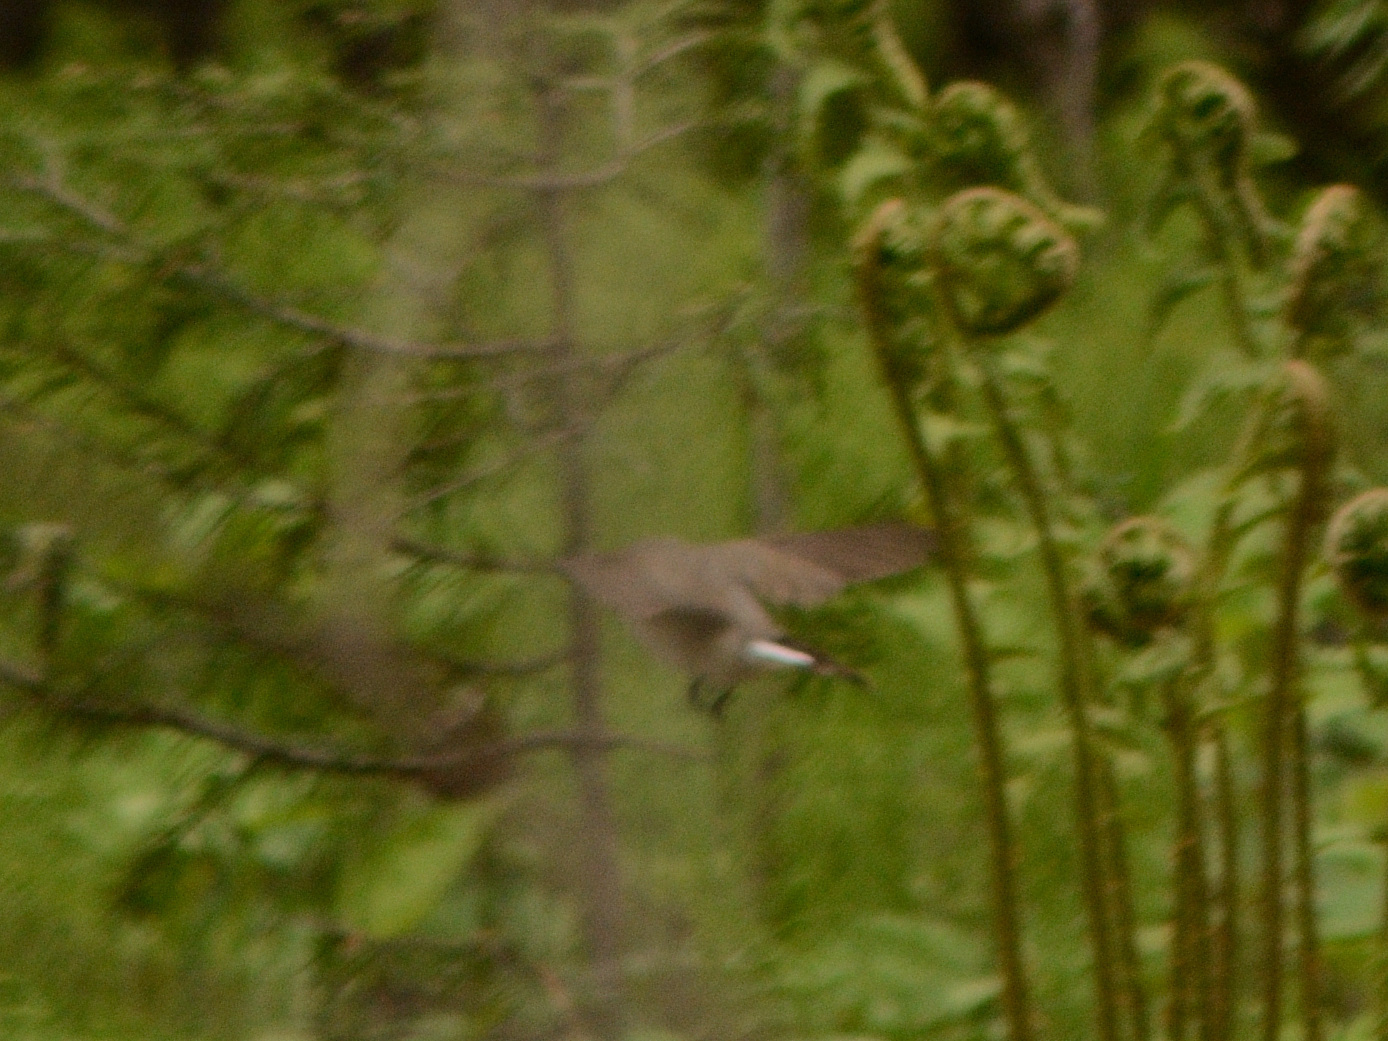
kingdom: Animalia
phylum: Chordata
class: Aves
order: Passeriformes
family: Muscicapidae
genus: Ficedula
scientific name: Ficedula parva
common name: Red-breasted flycatcher
